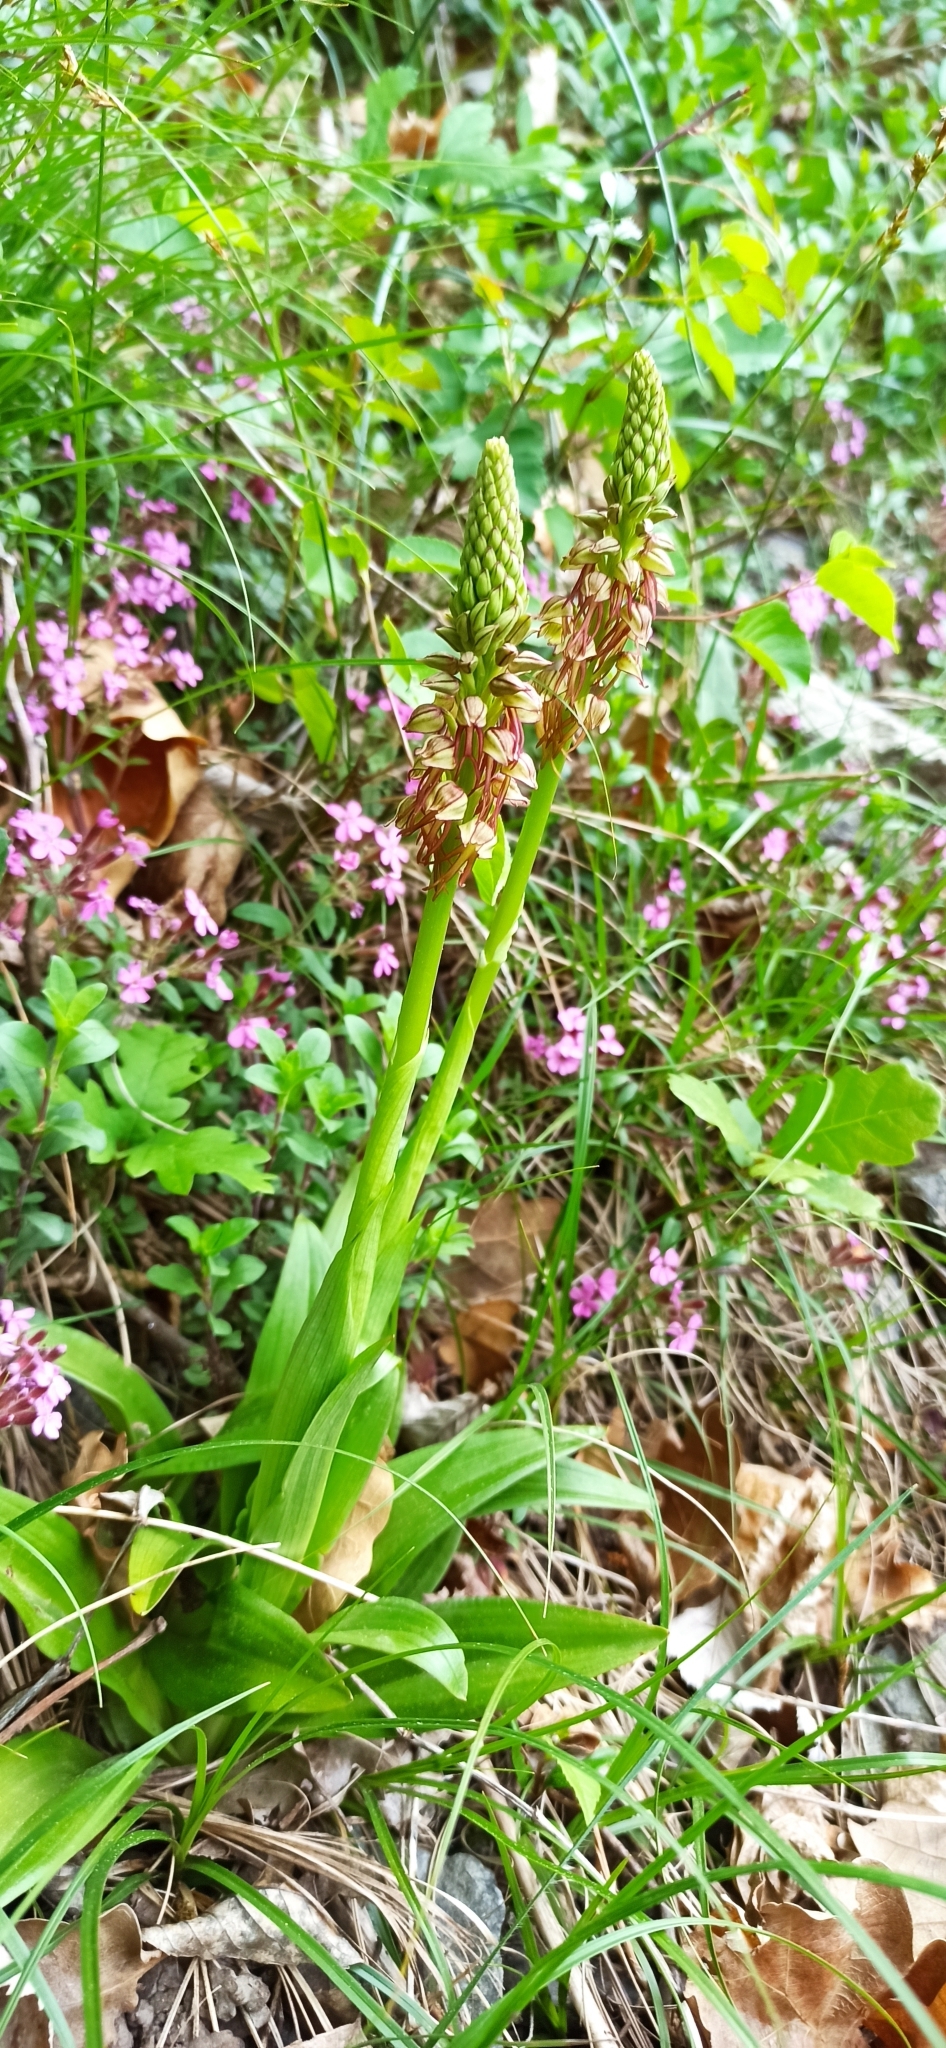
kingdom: Plantae
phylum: Tracheophyta
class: Liliopsida
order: Asparagales
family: Orchidaceae
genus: Orchis
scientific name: Orchis anthropophora
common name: Man orchid
